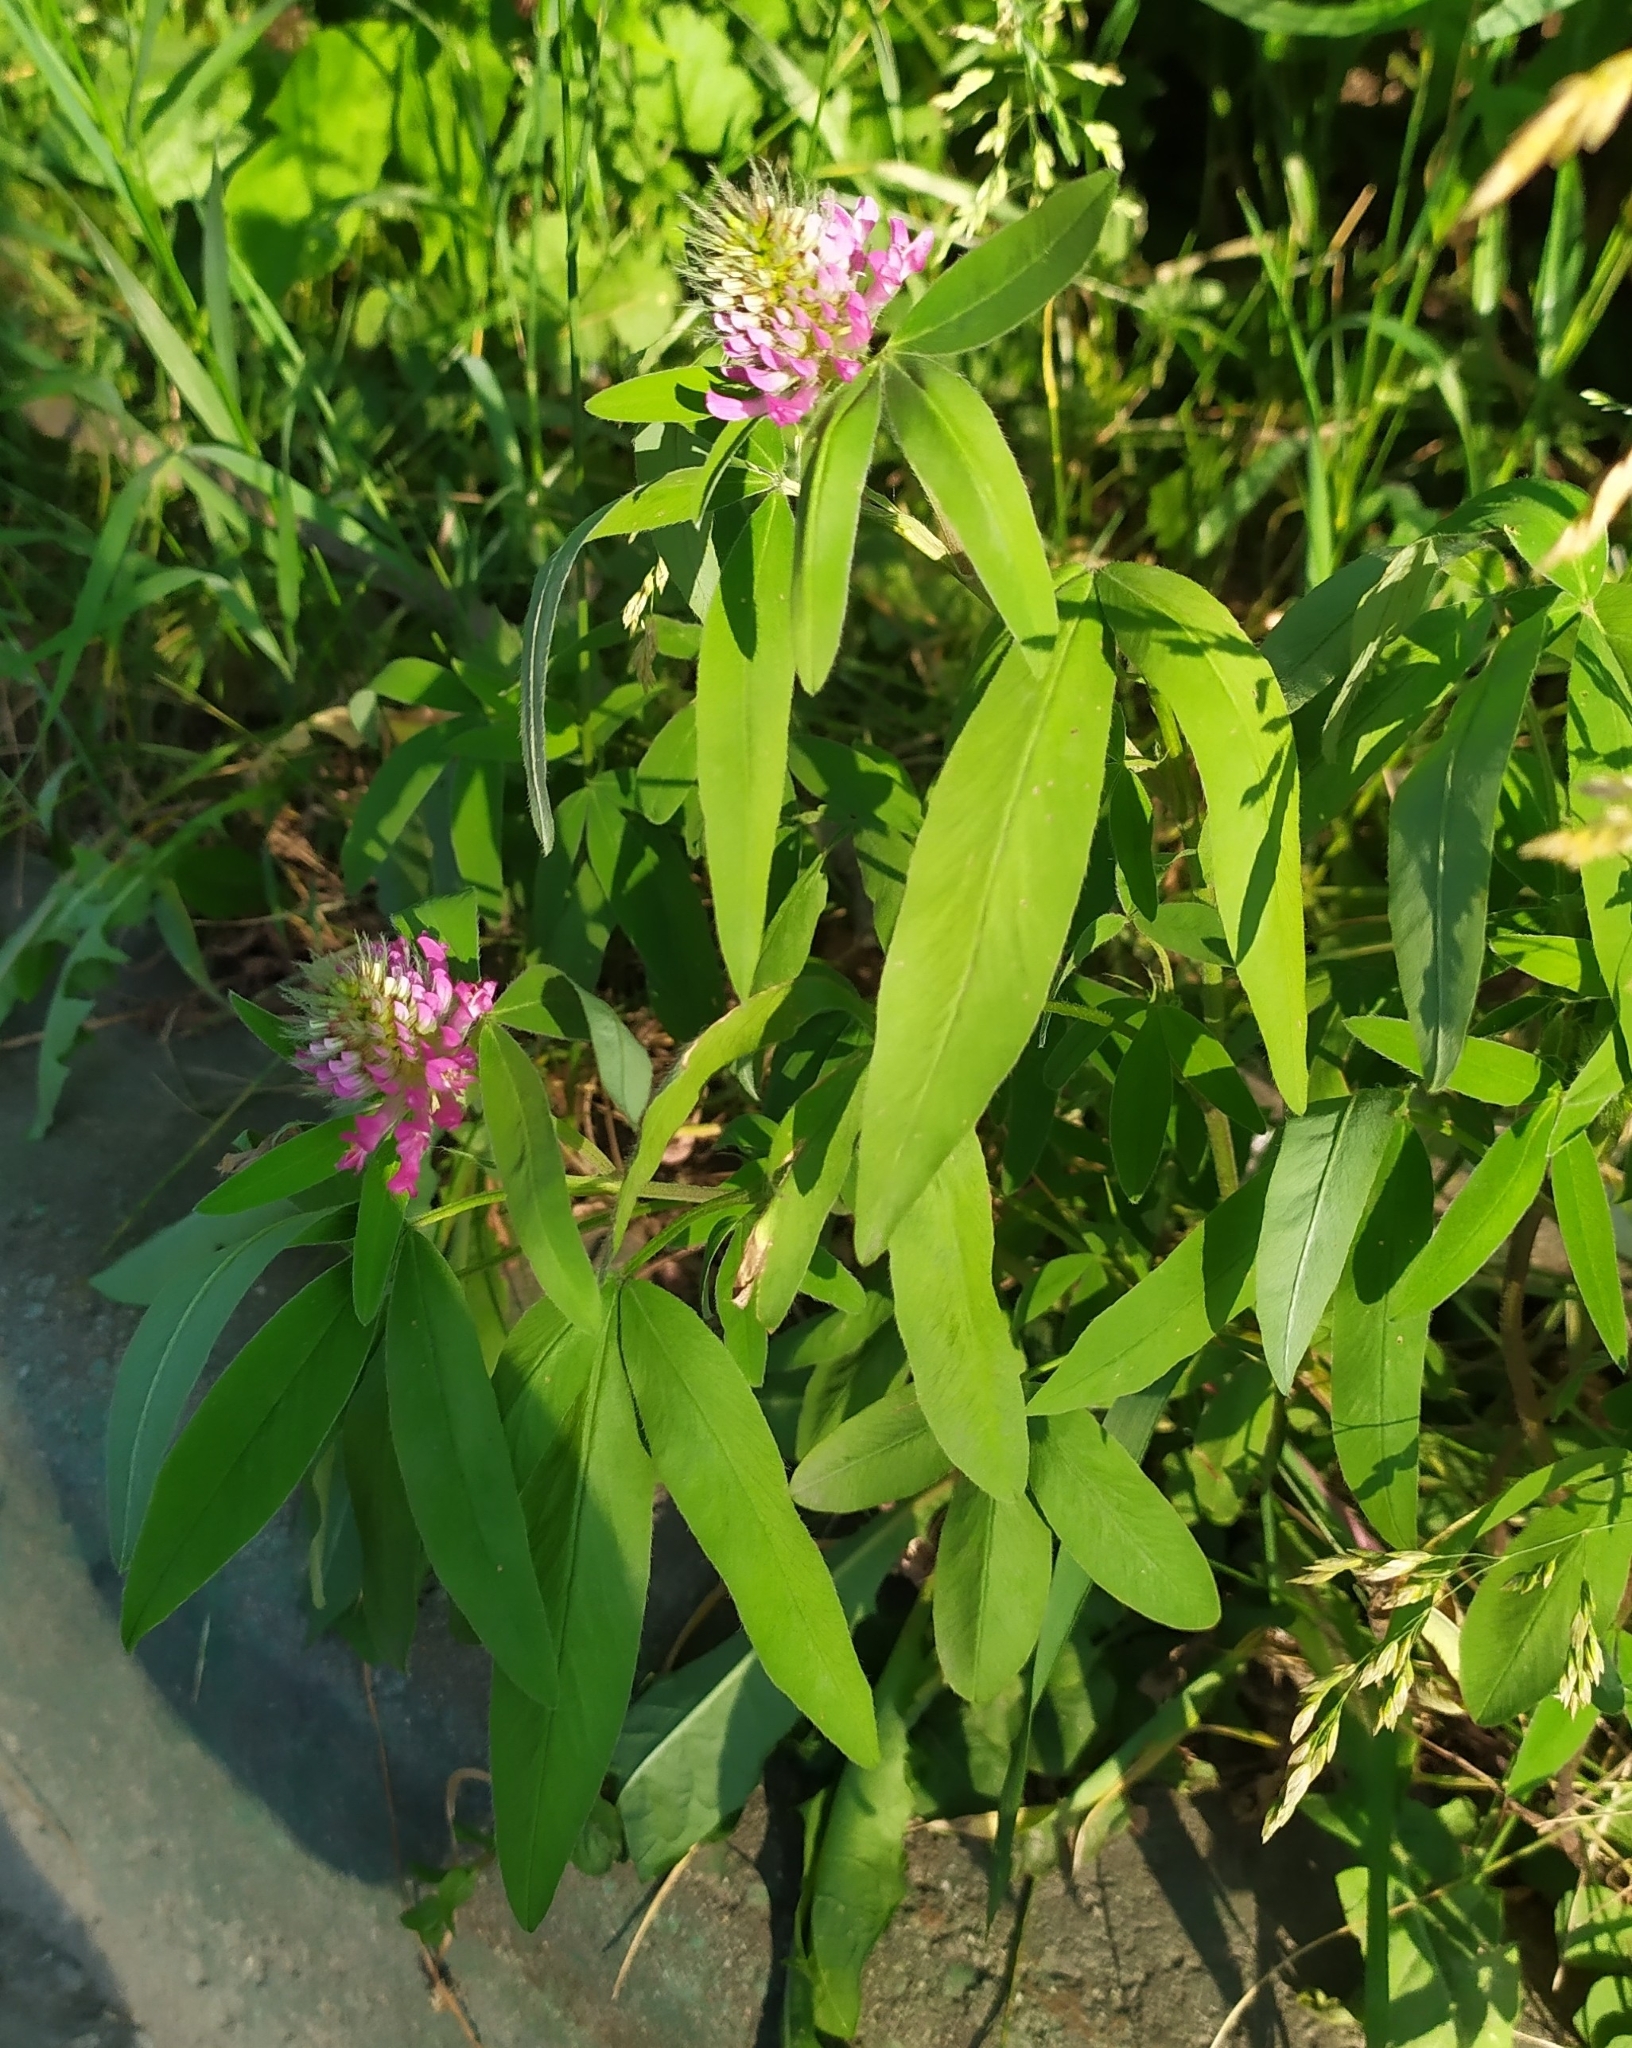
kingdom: Plantae
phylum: Tracheophyta
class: Magnoliopsida
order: Fabales
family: Fabaceae
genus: Trifolium
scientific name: Trifolium medium
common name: Zigzag clover
